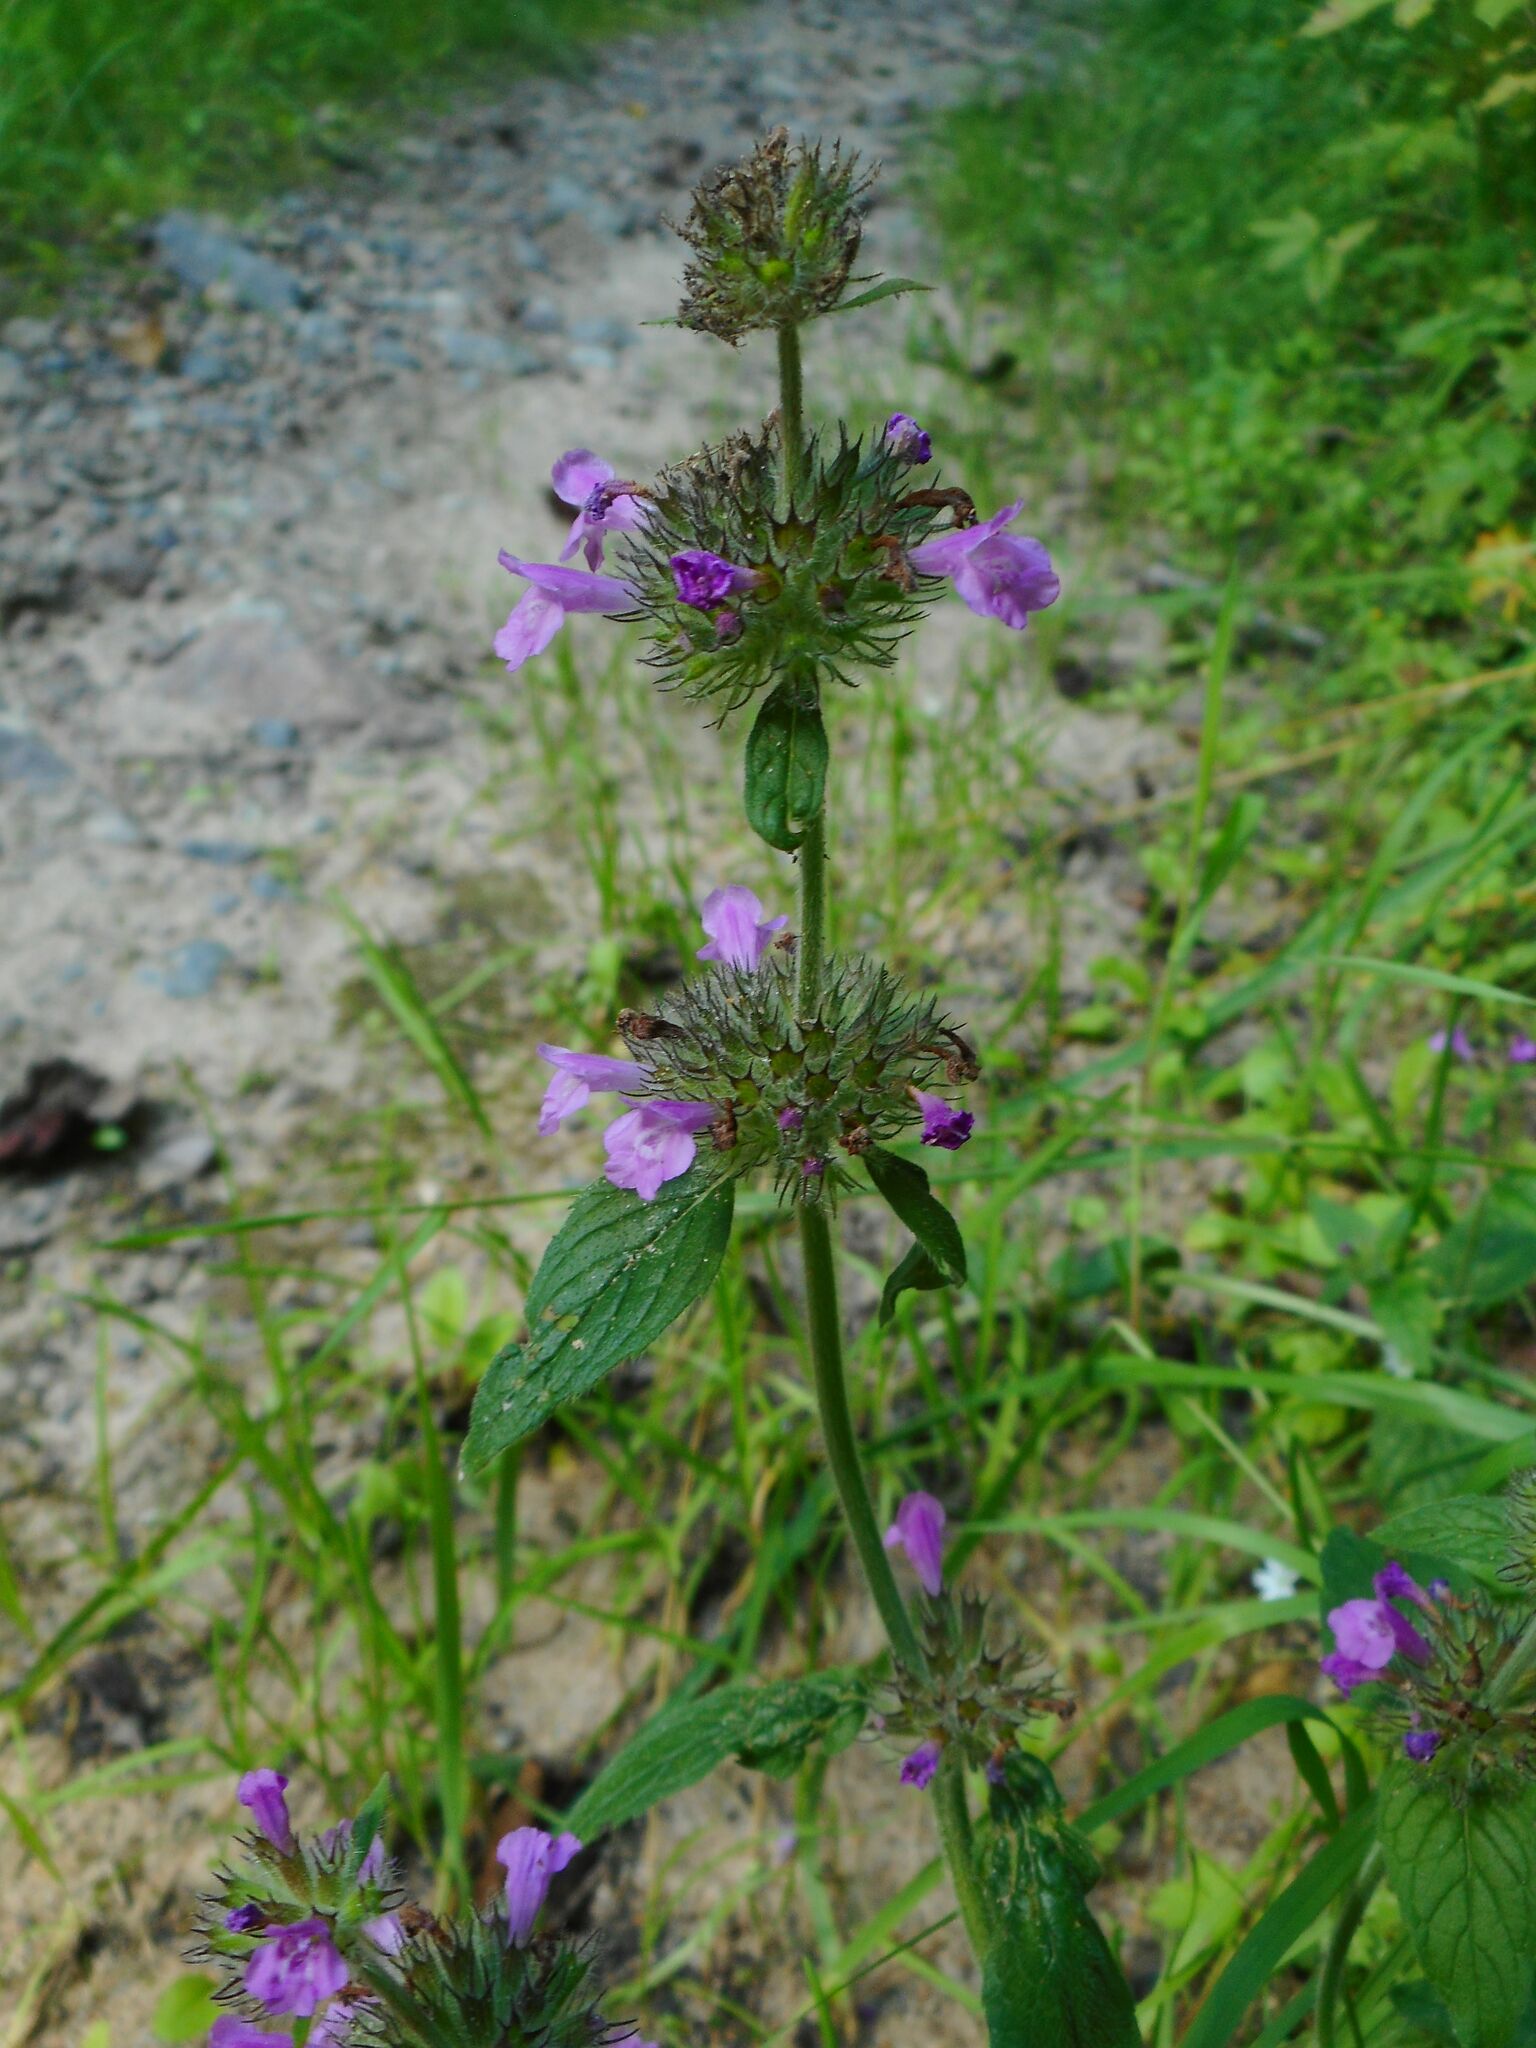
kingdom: Plantae
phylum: Tracheophyta
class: Magnoliopsida
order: Lamiales
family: Lamiaceae
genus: Clinopodium
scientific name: Clinopodium vulgare
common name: Wild basil
